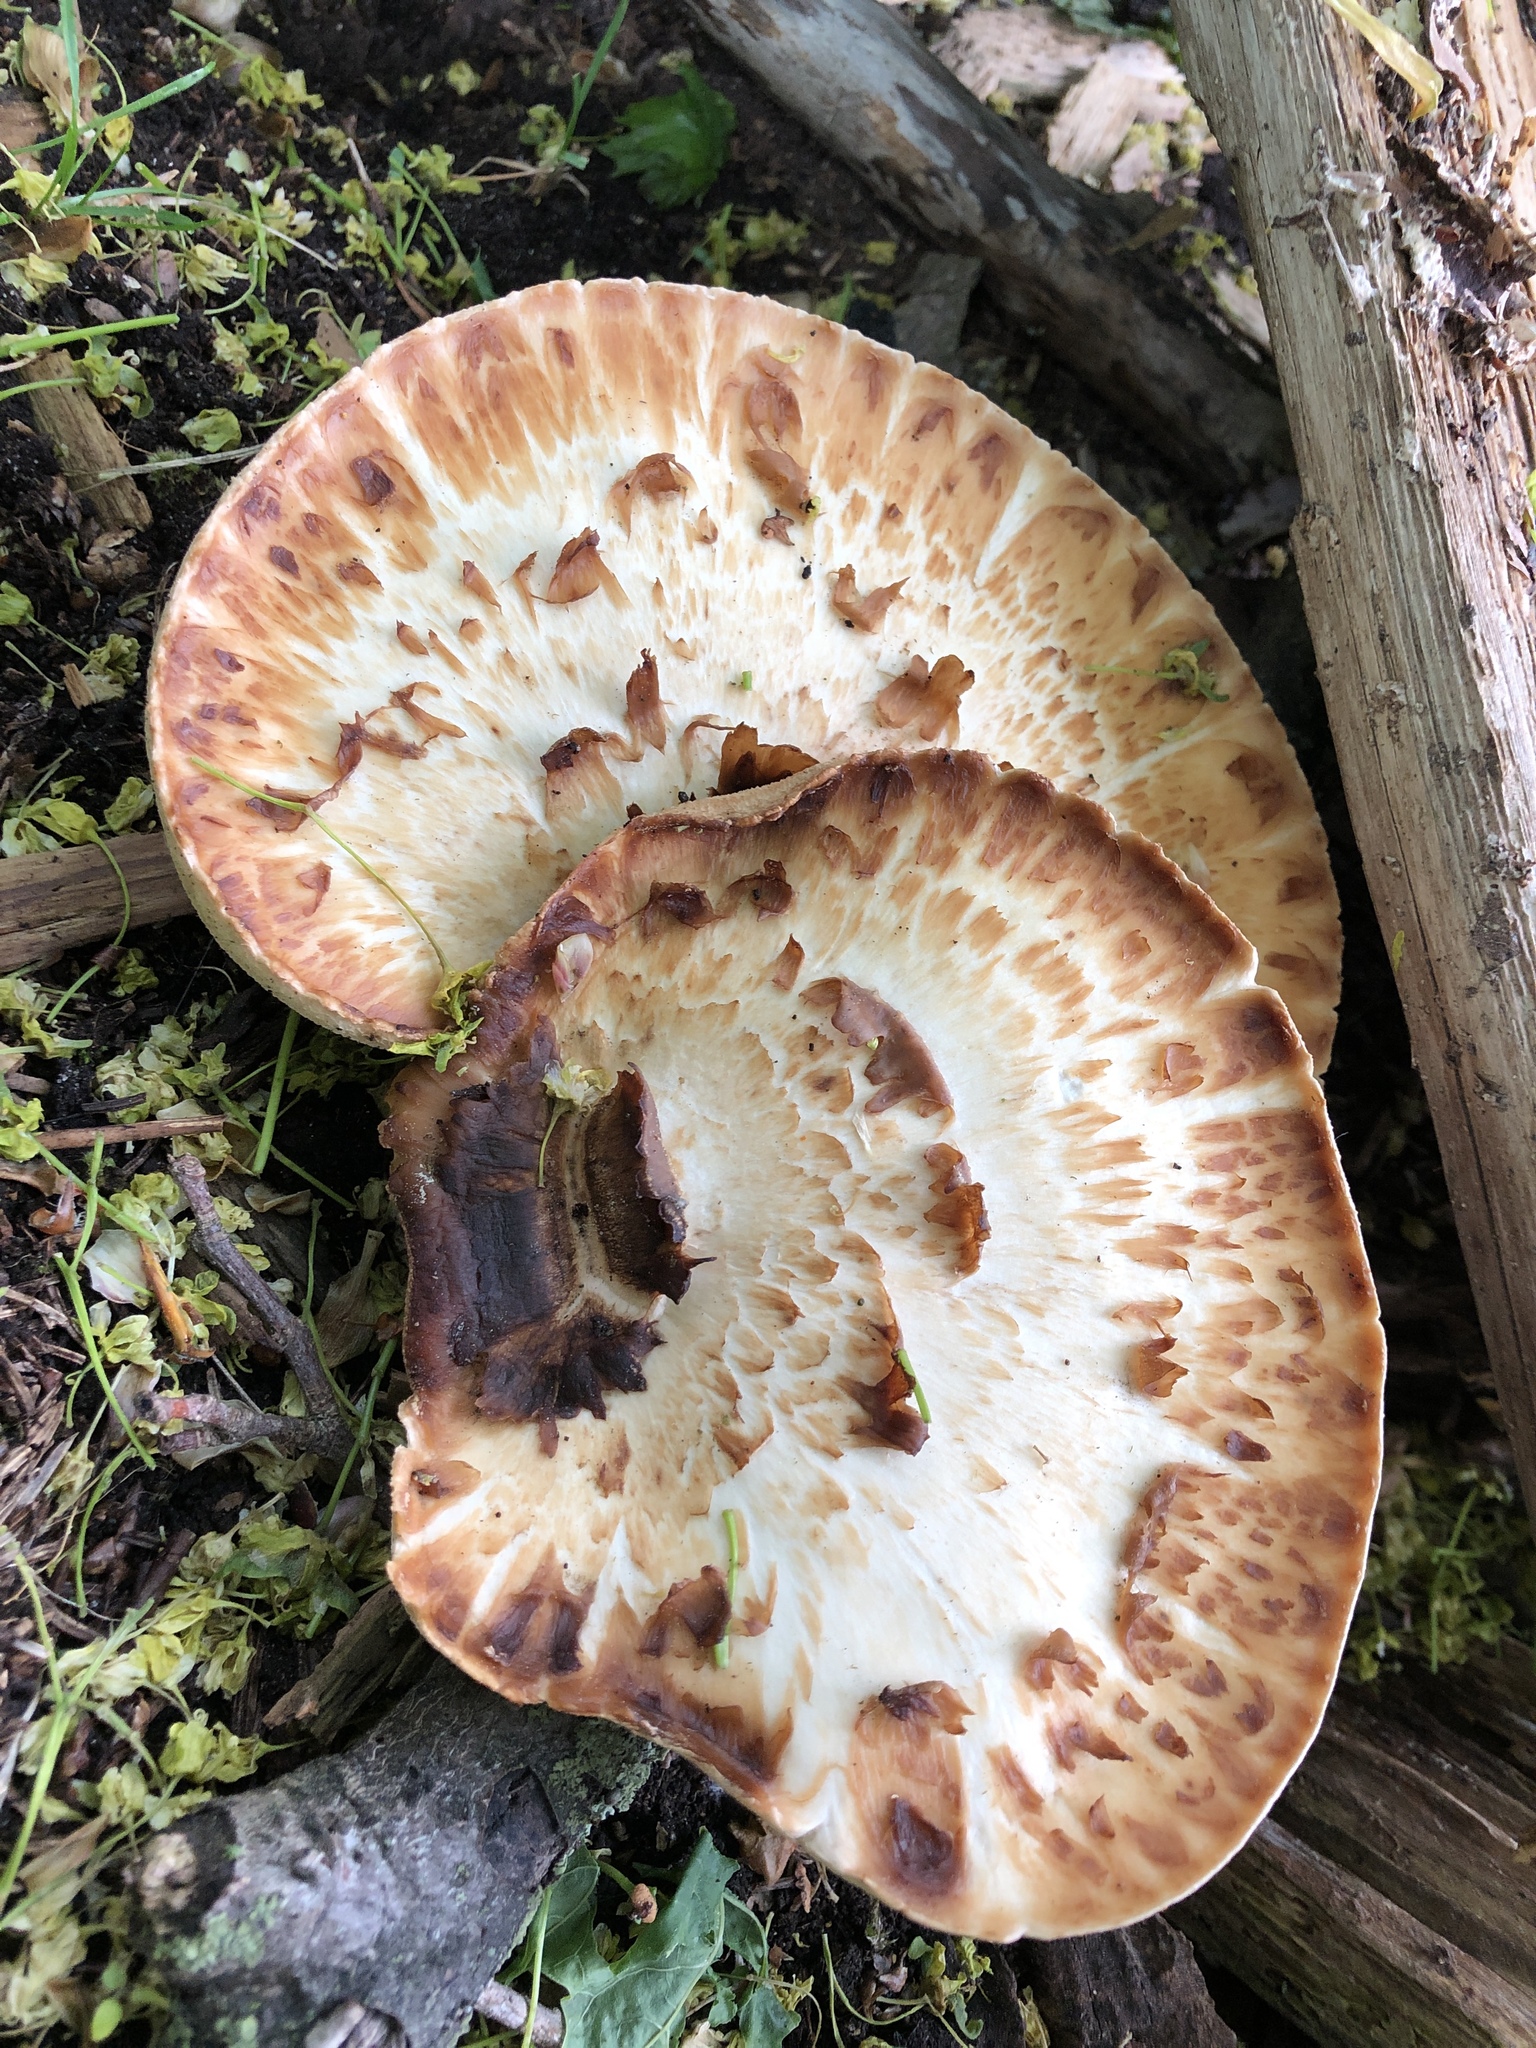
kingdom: Fungi
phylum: Basidiomycota
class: Agaricomycetes
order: Polyporales
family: Polyporaceae
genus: Cerioporus
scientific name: Cerioporus squamosus
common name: Dryad's saddle
